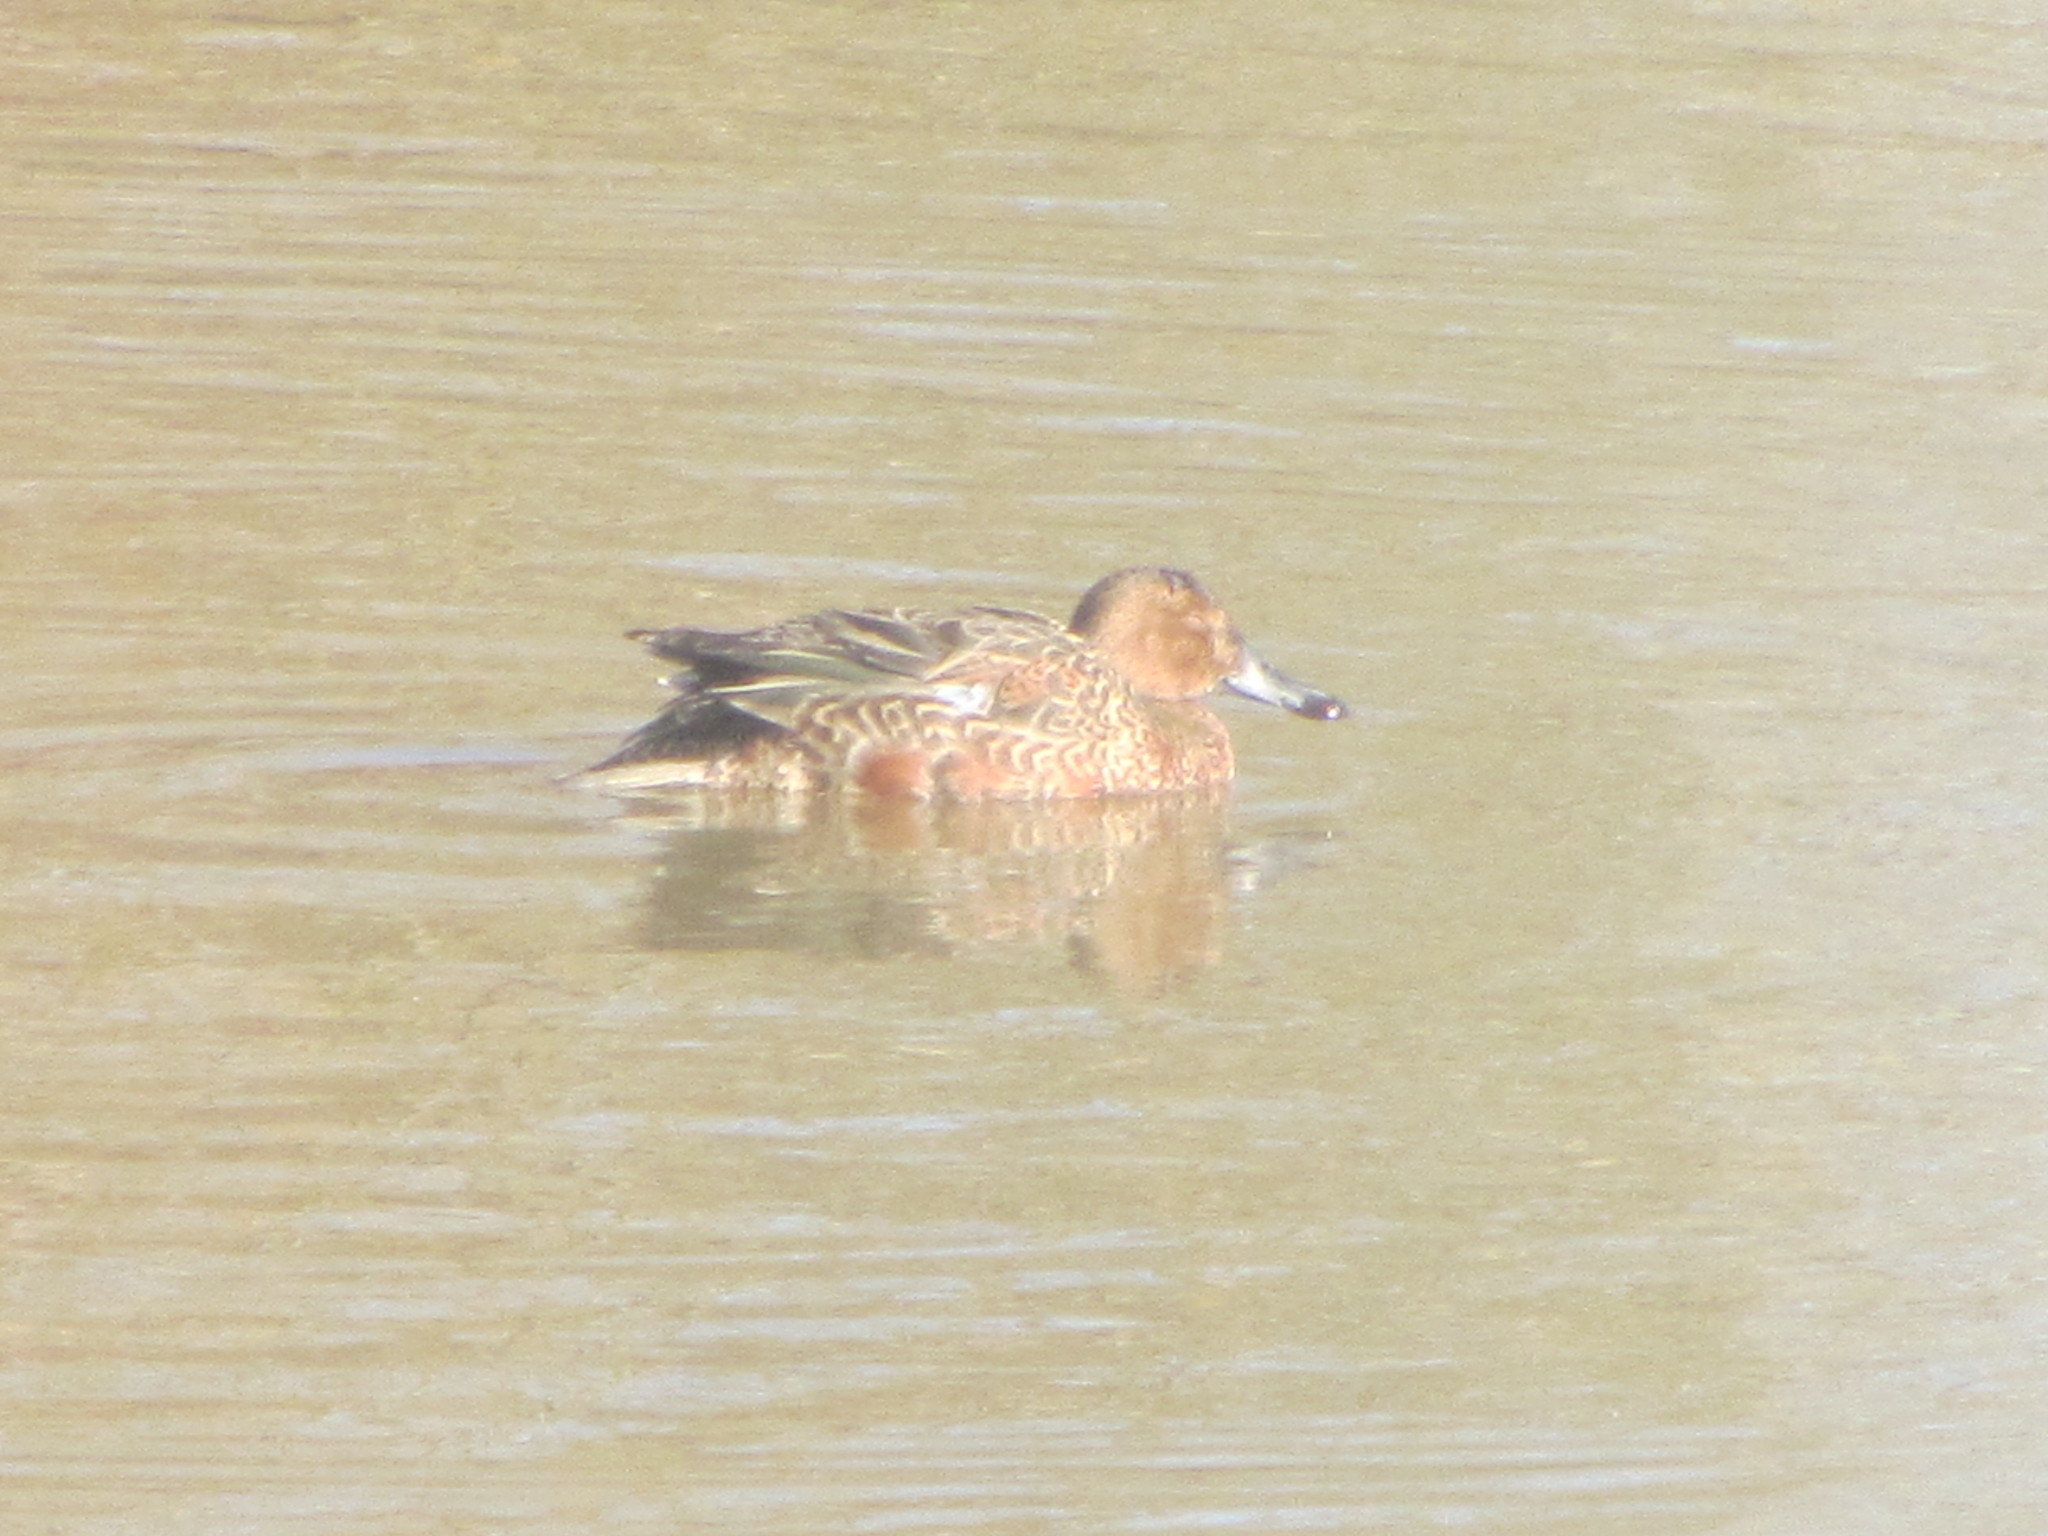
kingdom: Animalia
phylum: Chordata
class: Aves
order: Anseriformes
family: Anatidae
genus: Spatula
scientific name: Spatula cyanoptera
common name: Cinnamon teal
